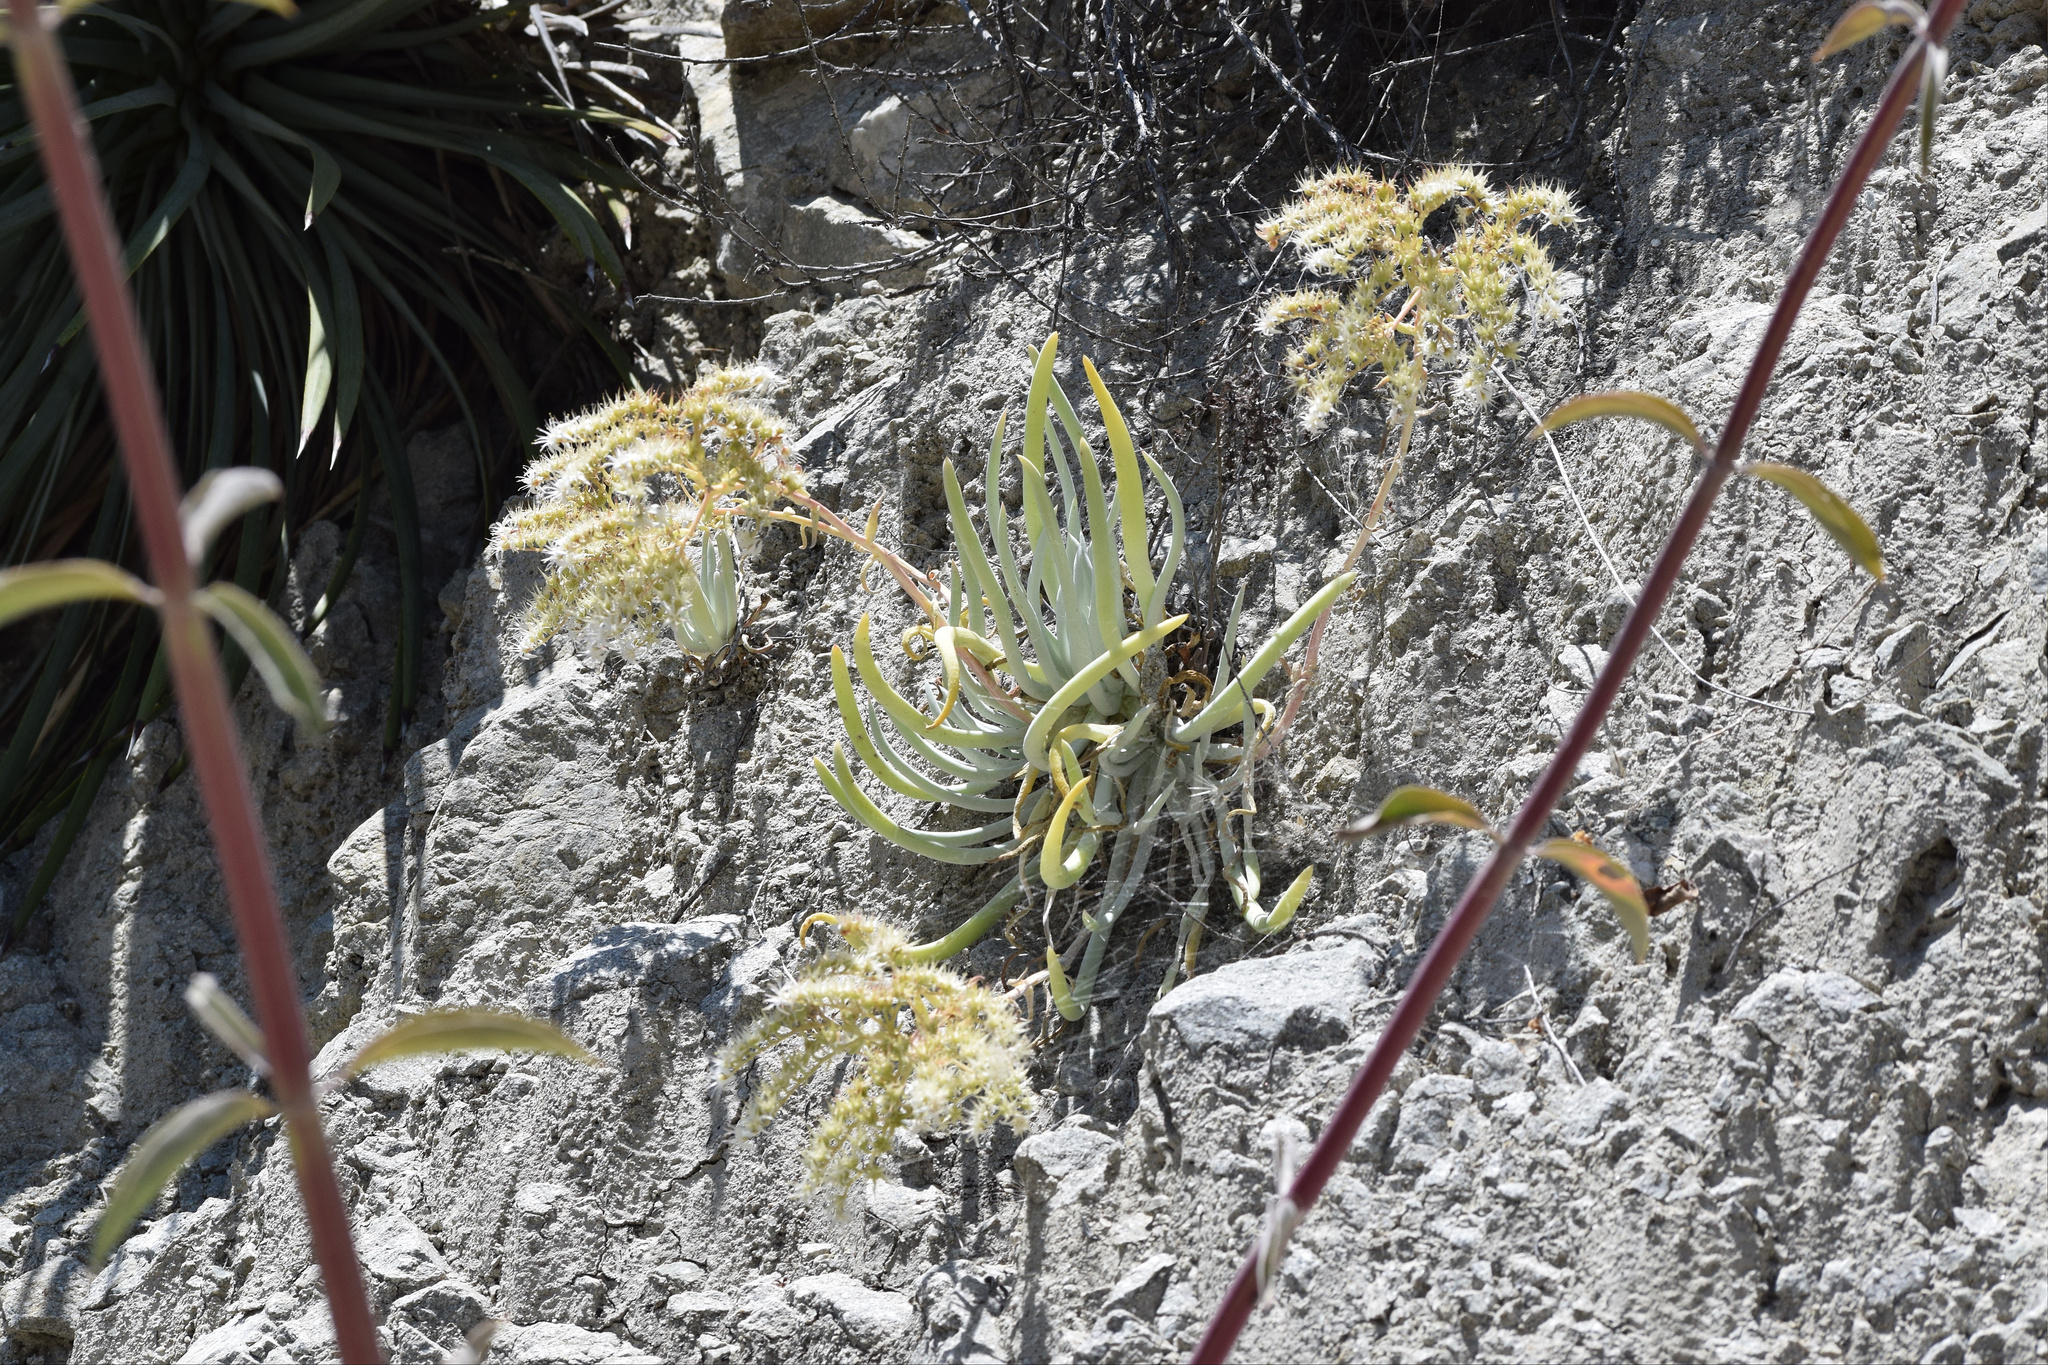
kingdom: Plantae
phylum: Tracheophyta
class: Magnoliopsida
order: Saxifragales
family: Crassulaceae
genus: Dudleya
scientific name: Dudleya densiflora
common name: San gabriel mountains dudleya
